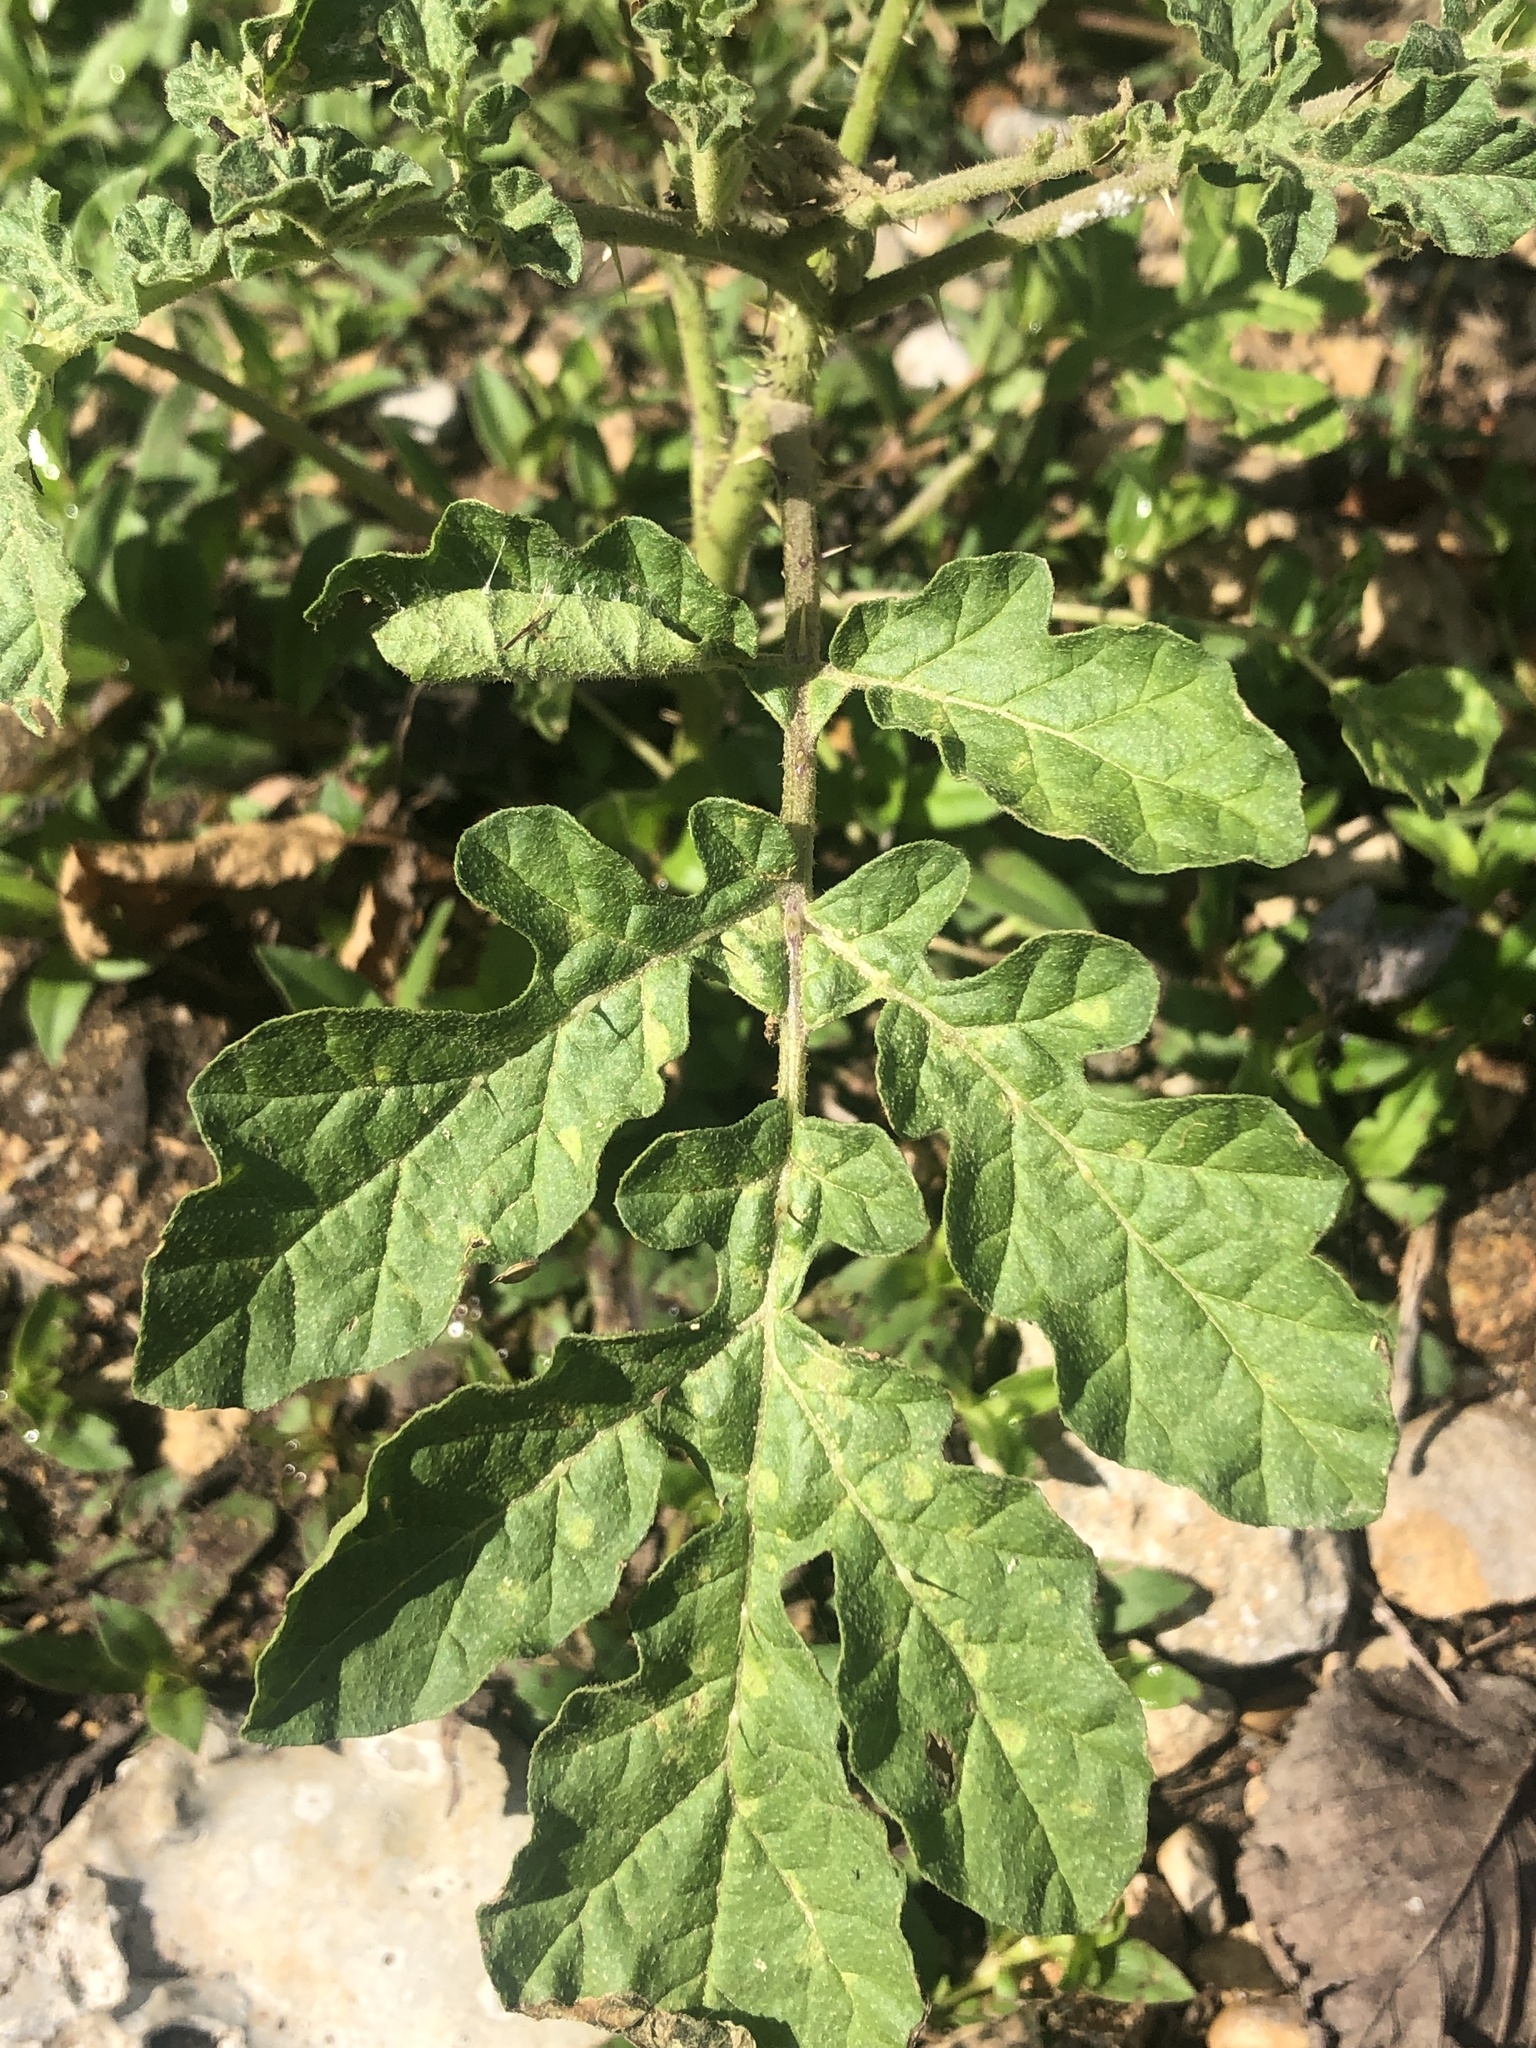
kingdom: Plantae
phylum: Tracheophyta
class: Magnoliopsida
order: Solanales
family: Solanaceae
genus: Solanum
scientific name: Solanum angustifolium
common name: Buffalobur nightshade
